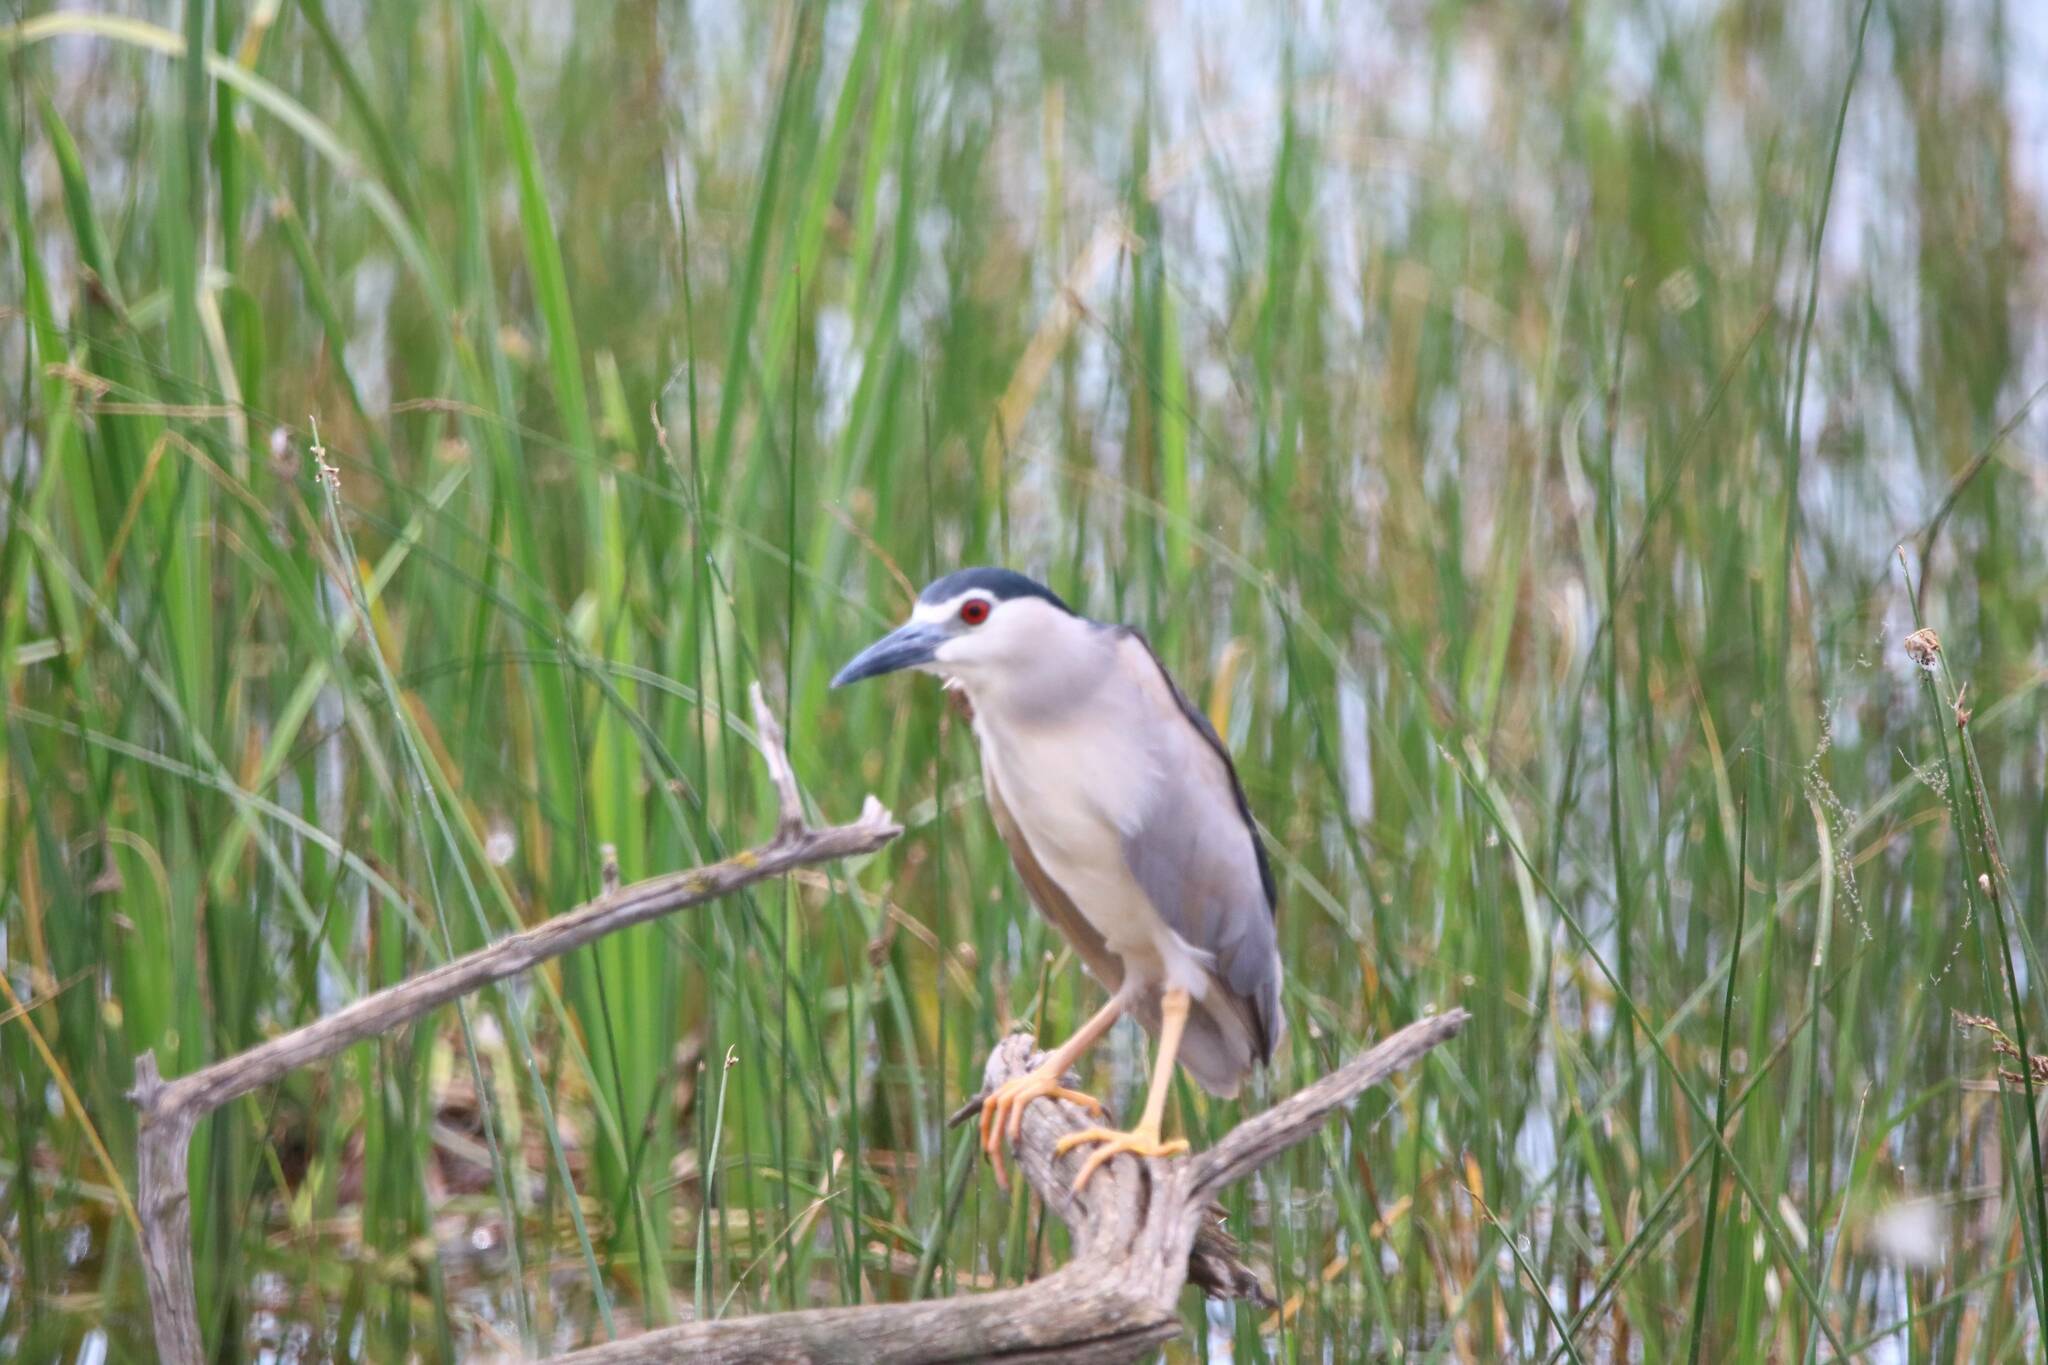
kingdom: Animalia
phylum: Chordata
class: Aves
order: Pelecaniformes
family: Ardeidae
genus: Nycticorax
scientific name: Nycticorax nycticorax
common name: Black-crowned night heron
